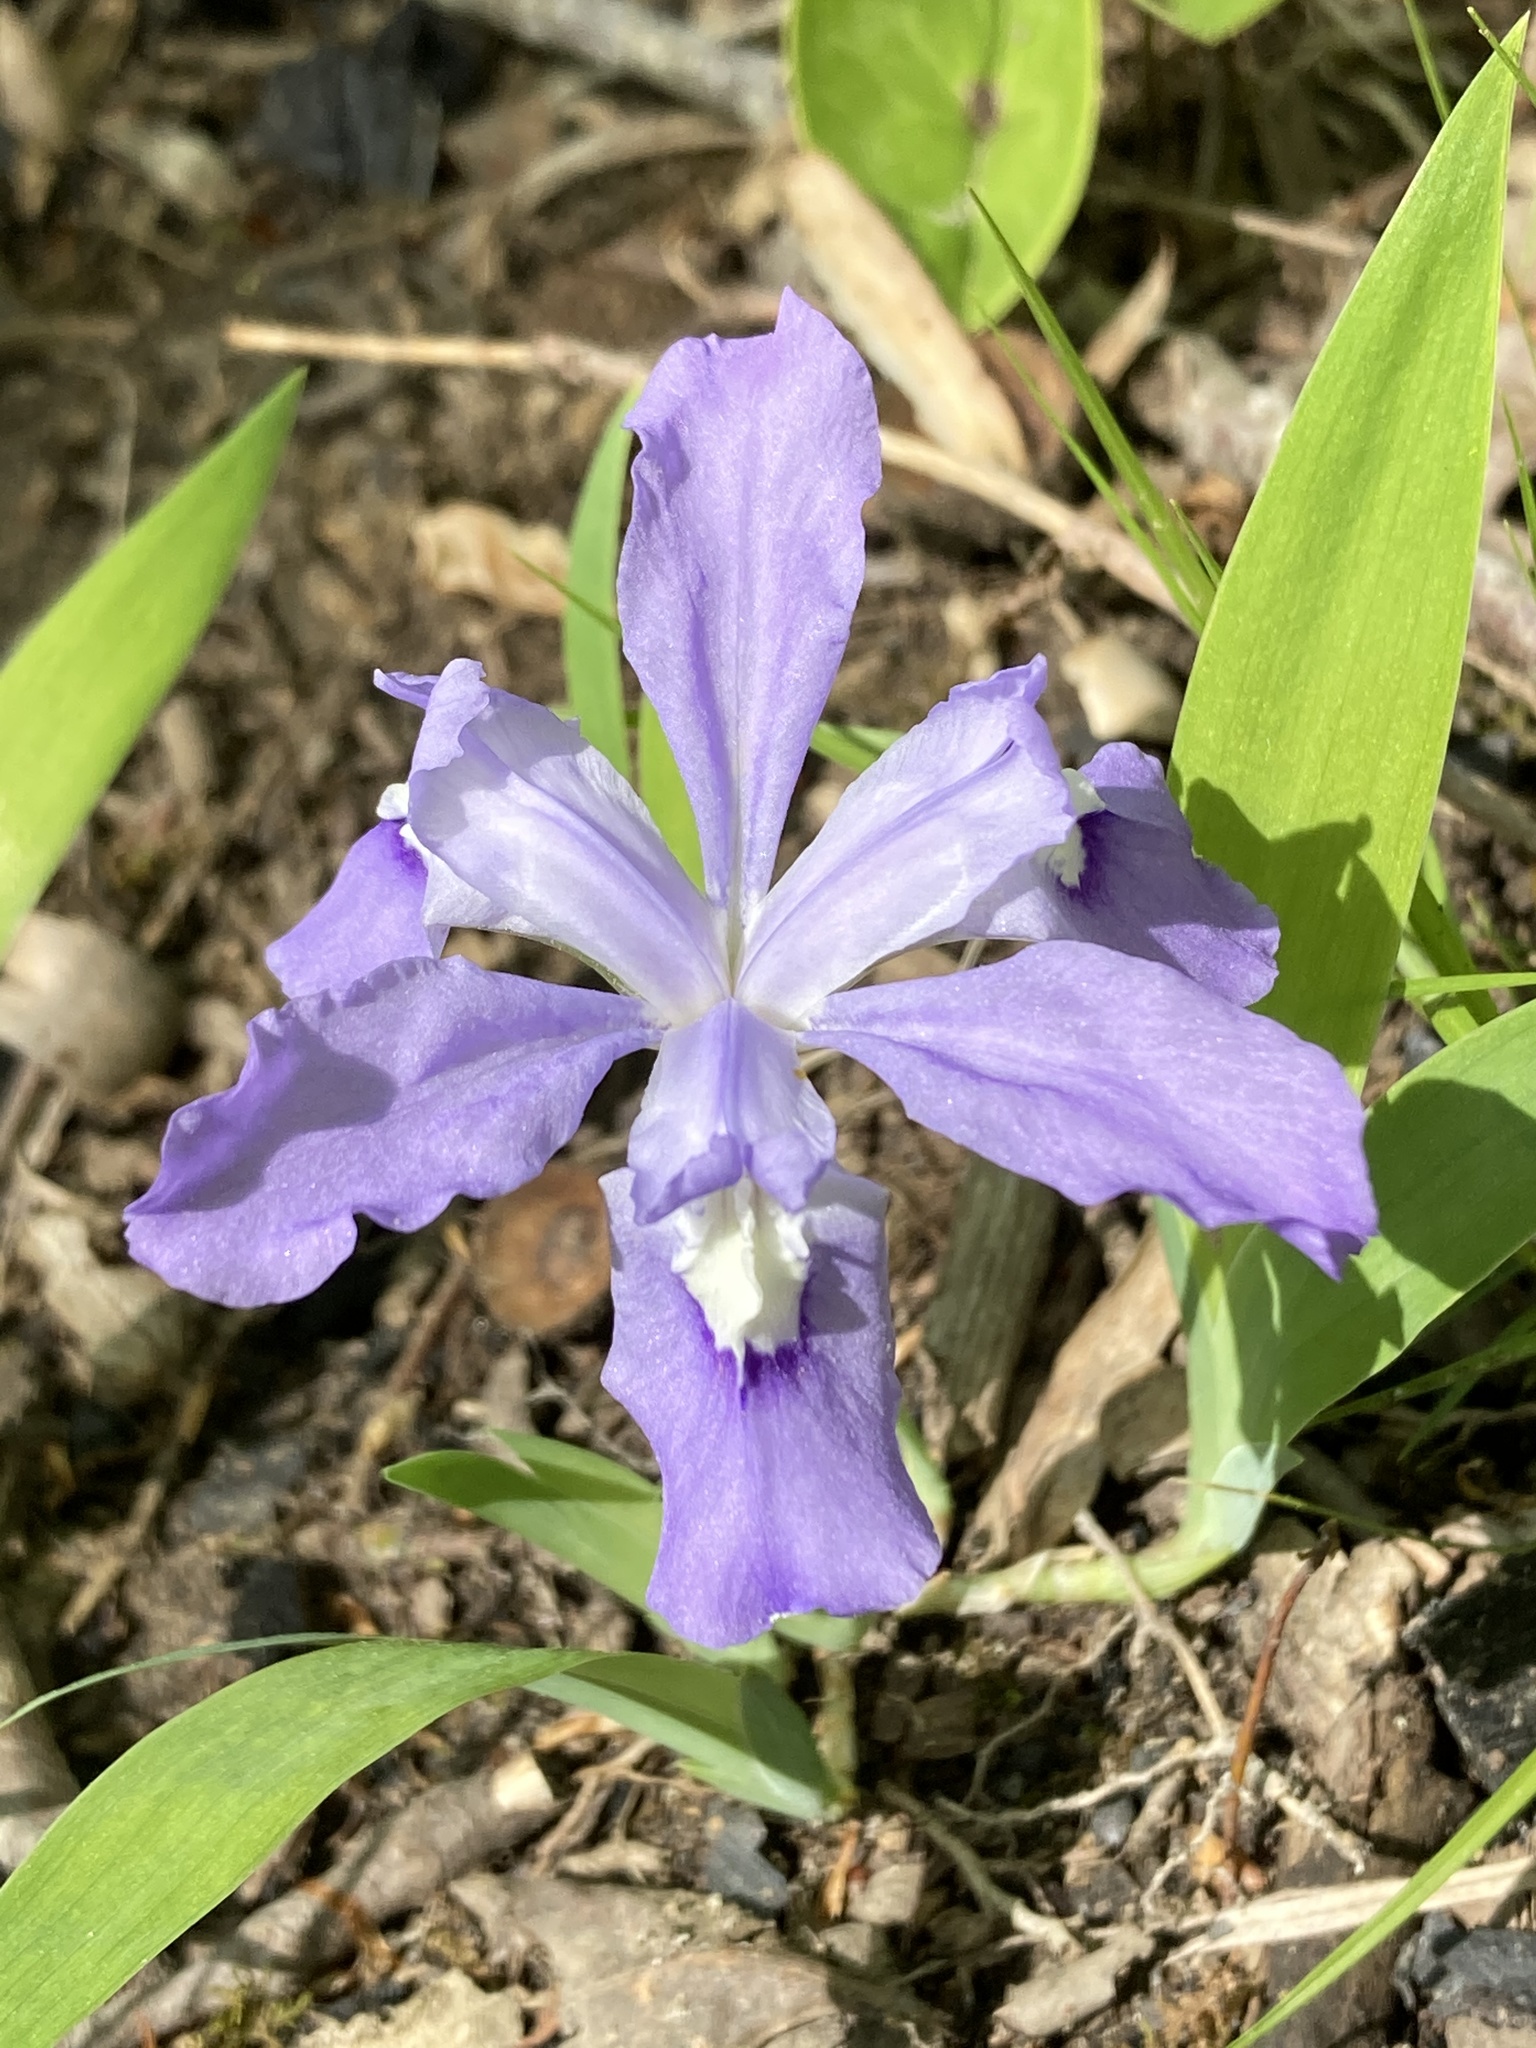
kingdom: Plantae
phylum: Tracheophyta
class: Liliopsida
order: Asparagales
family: Iridaceae
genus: Iris
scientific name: Iris cristata
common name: Crested iris
